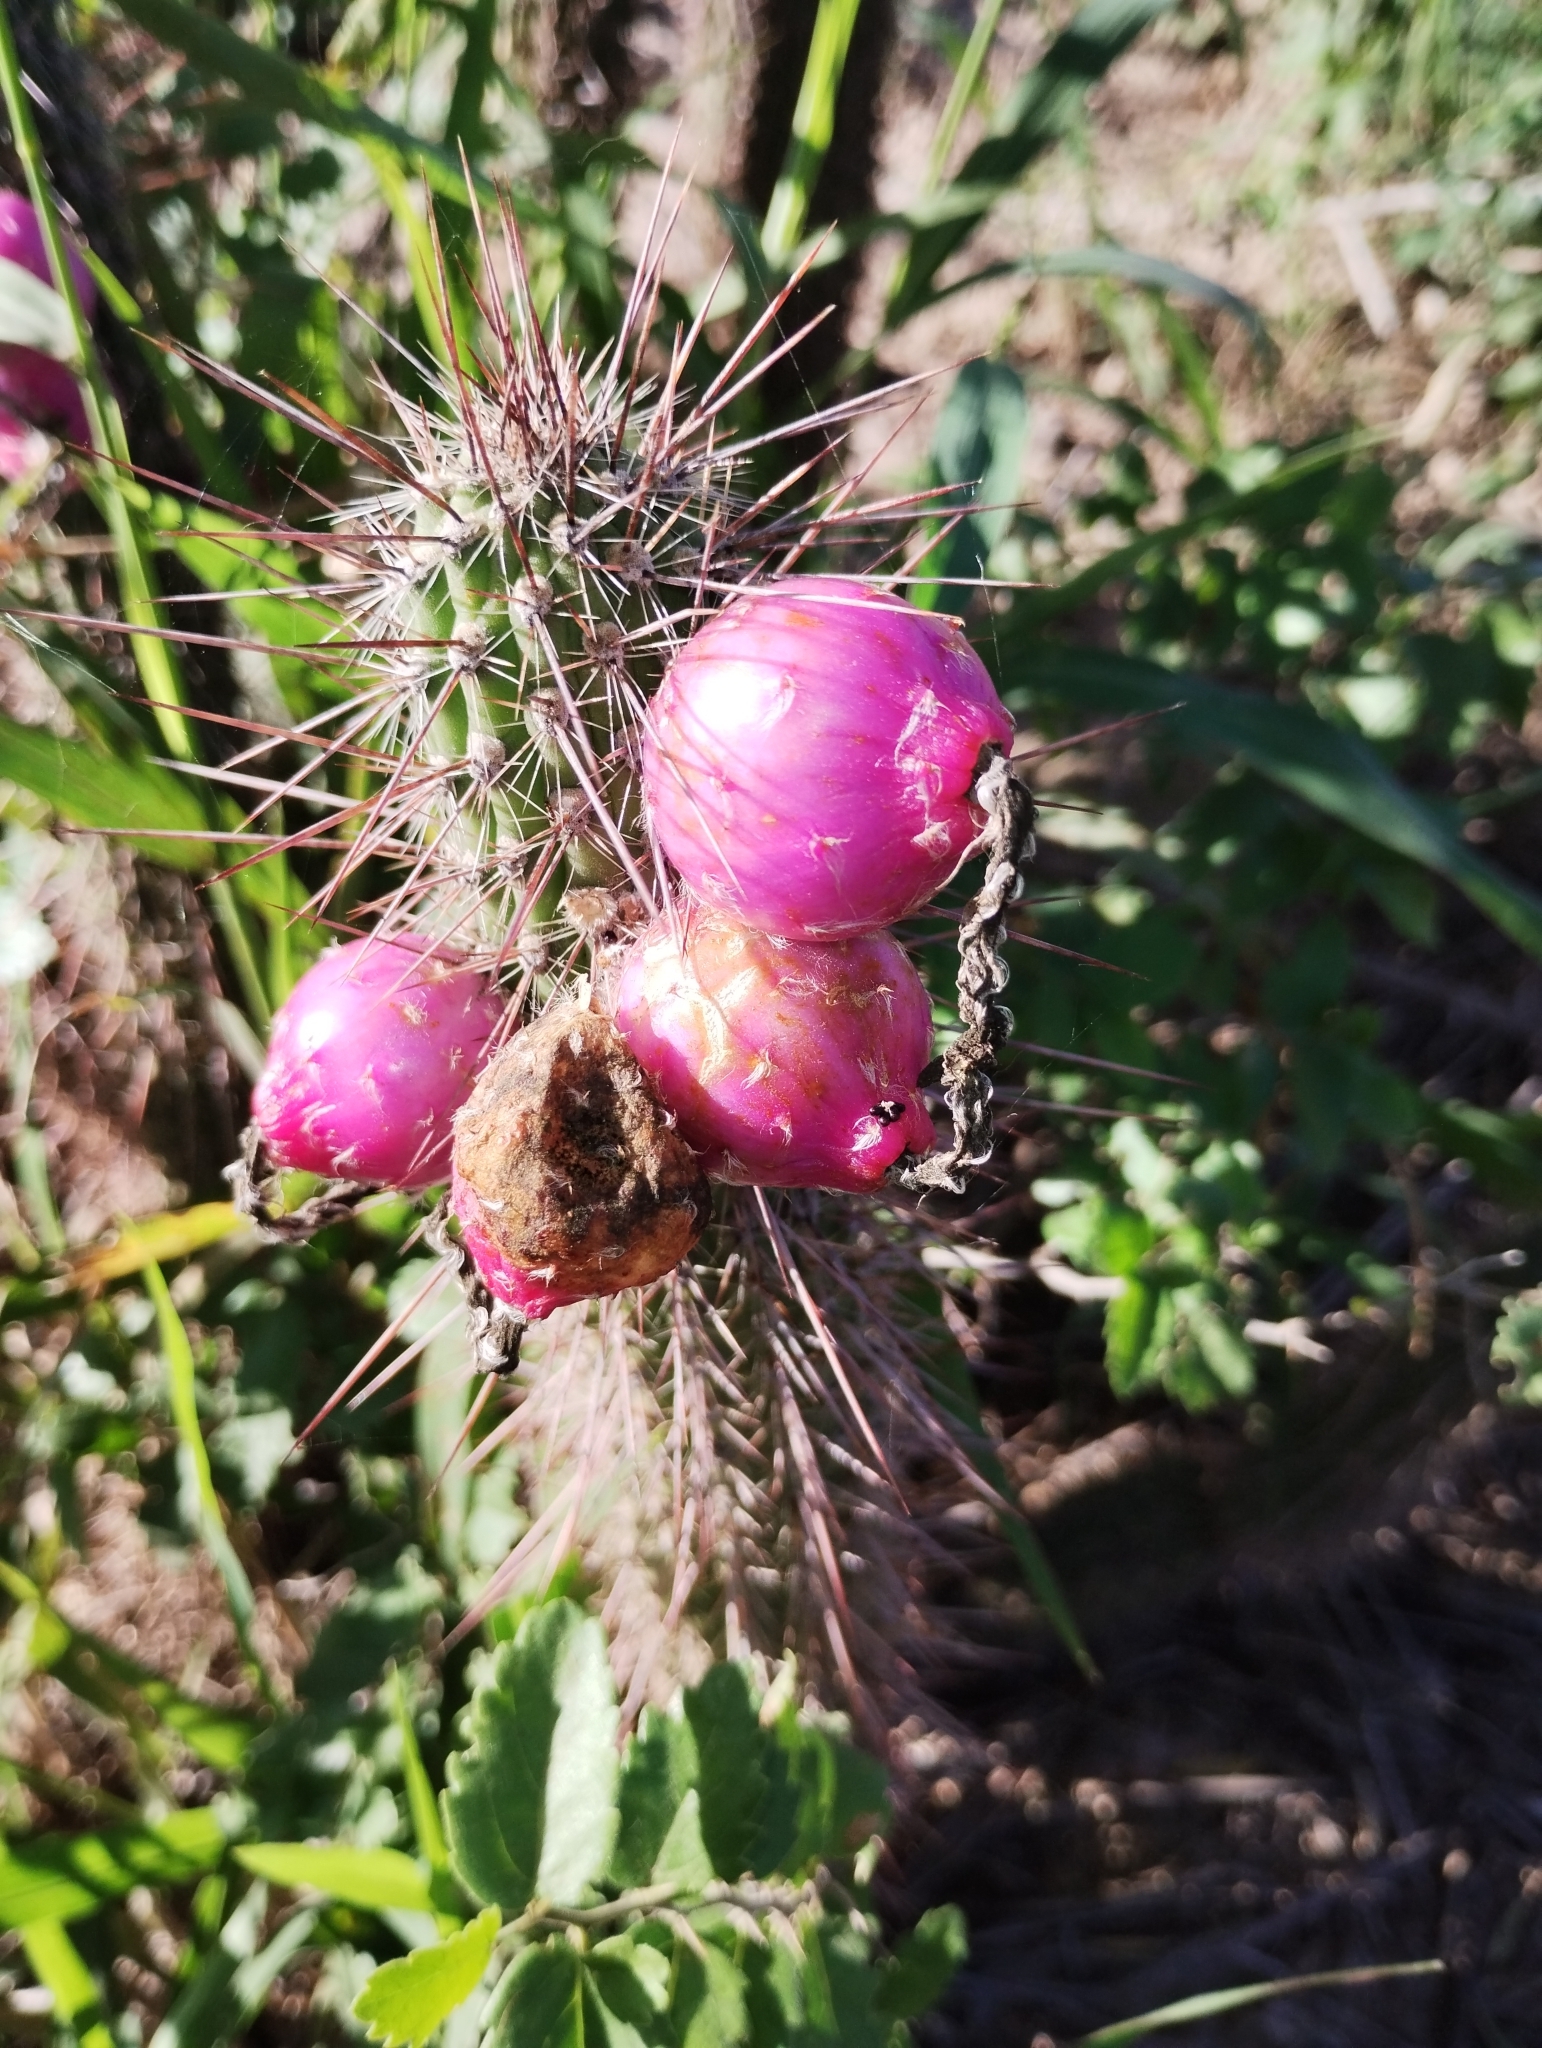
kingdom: Plantae
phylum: Tracheophyta
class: Magnoliopsida
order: Caryophyllales
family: Cactaceae
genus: Cleistocactus
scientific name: Cleistocactus baumannii
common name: Scarlet-bugler
